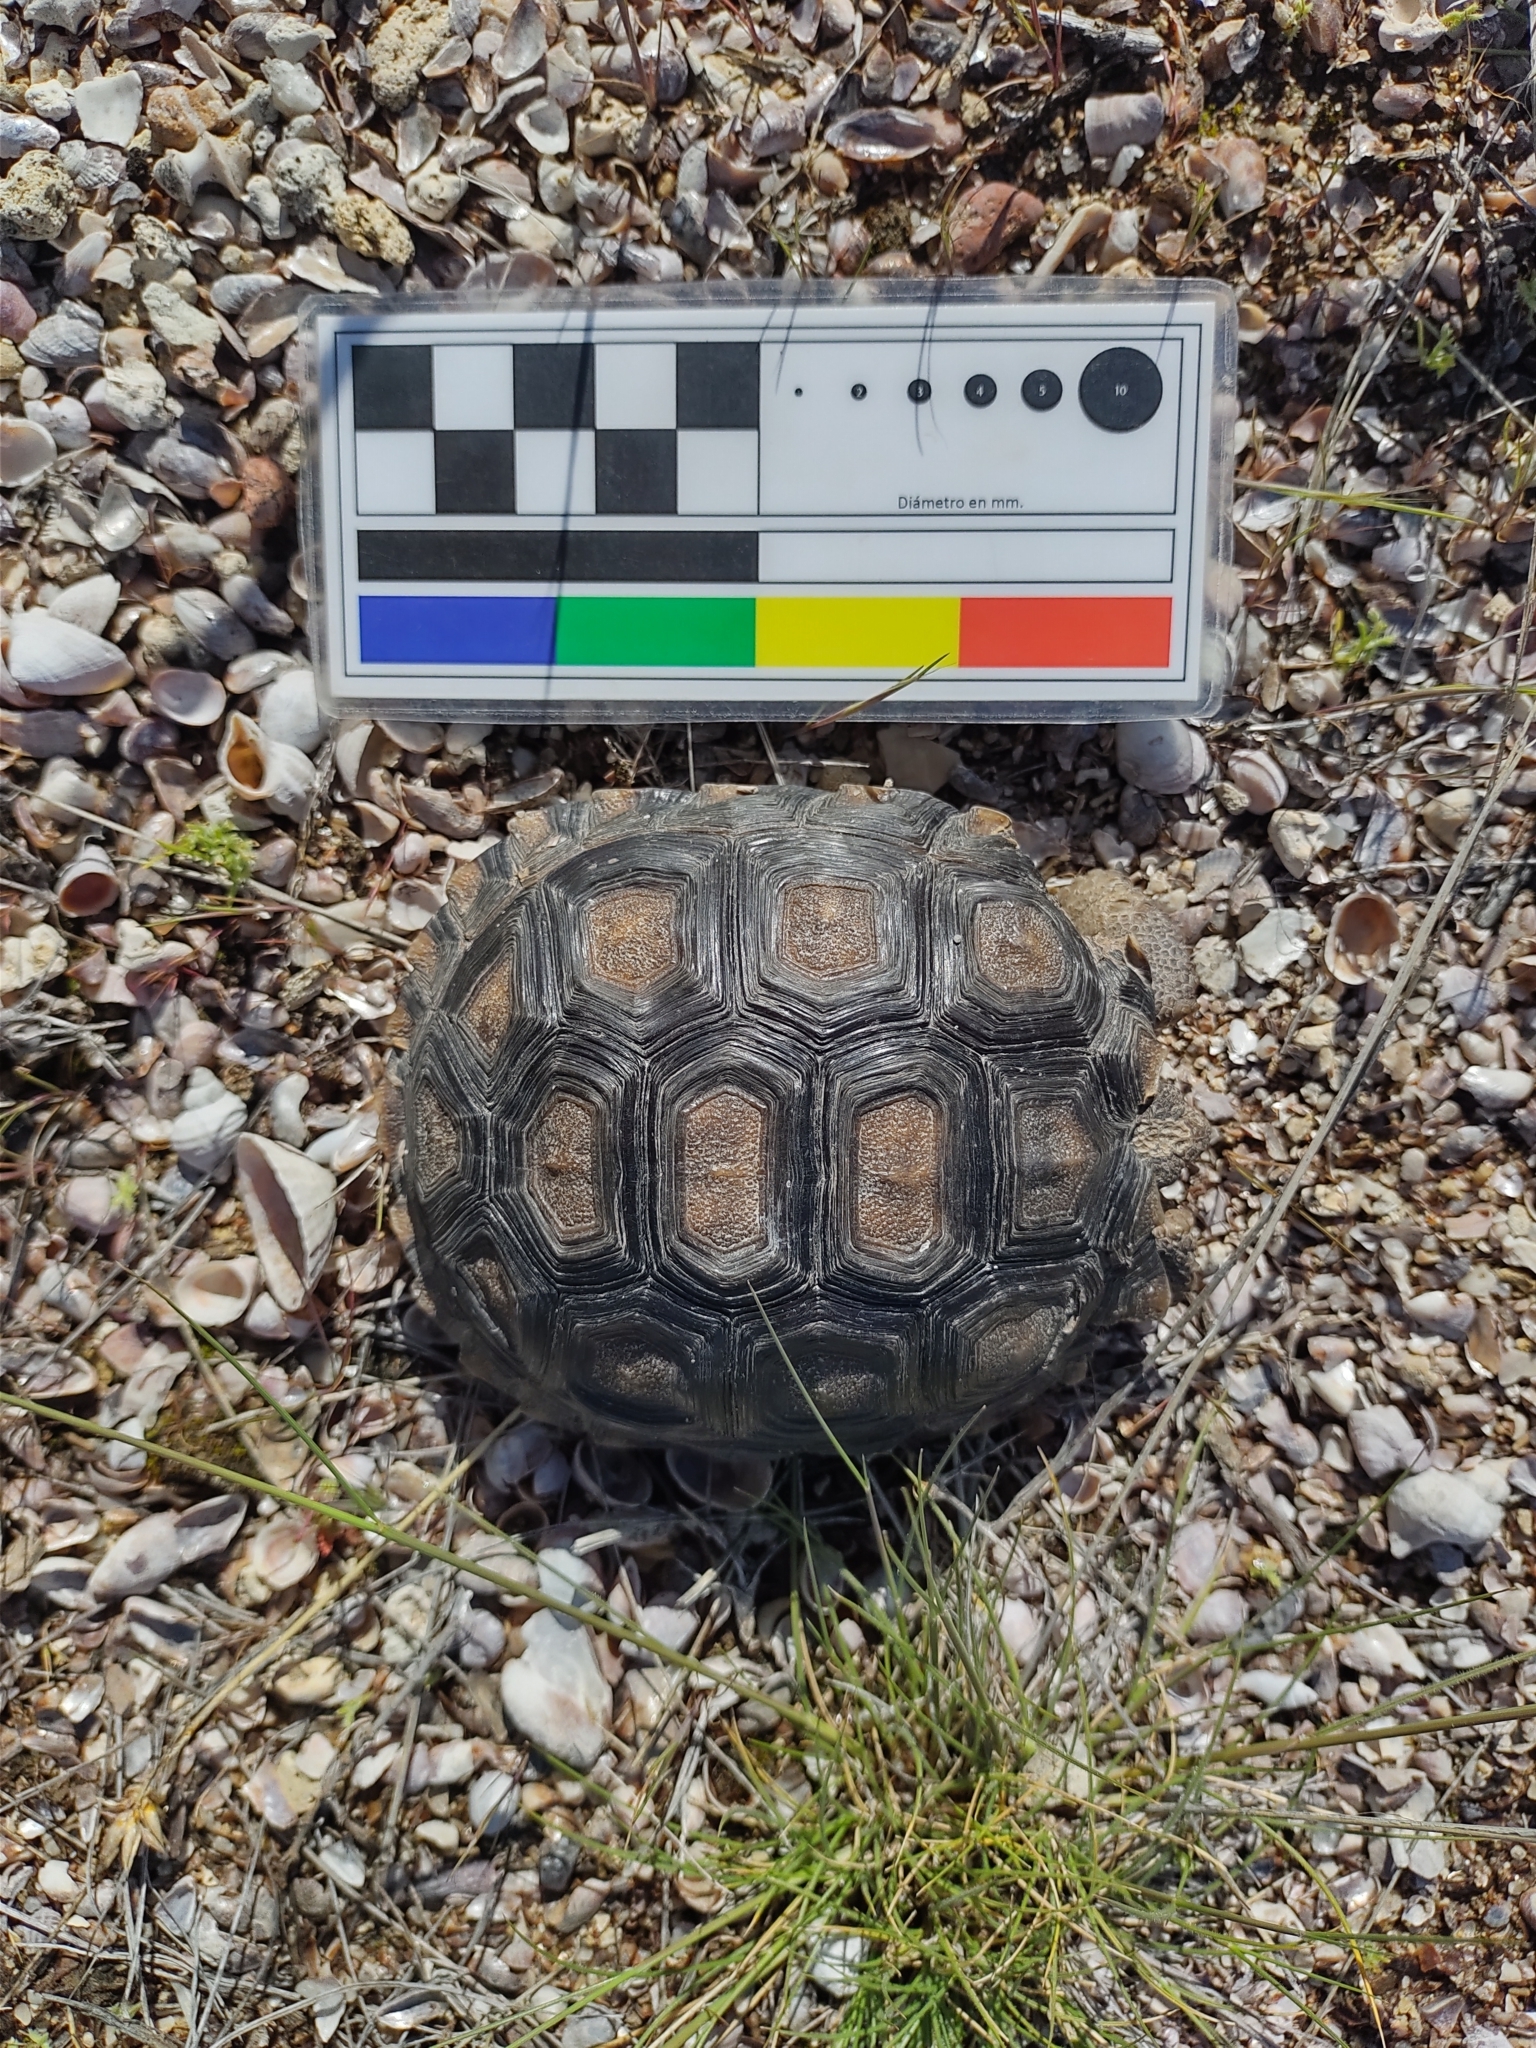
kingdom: Animalia
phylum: Chordata
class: Testudines
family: Testudinidae
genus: Chelonoidis
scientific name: Chelonoidis chilensis
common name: Chaco tortoise
